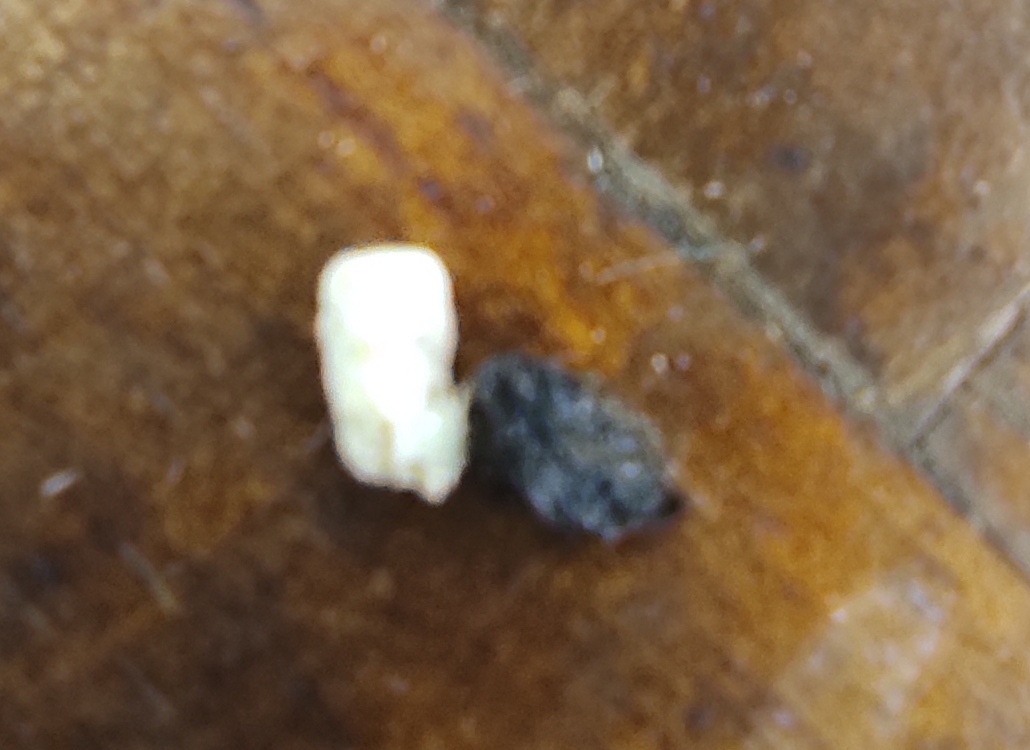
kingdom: Animalia
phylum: Chordata
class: Squamata
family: Phyllodactylidae
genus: Tarentola
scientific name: Tarentola mauritanica
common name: Moorish gecko
